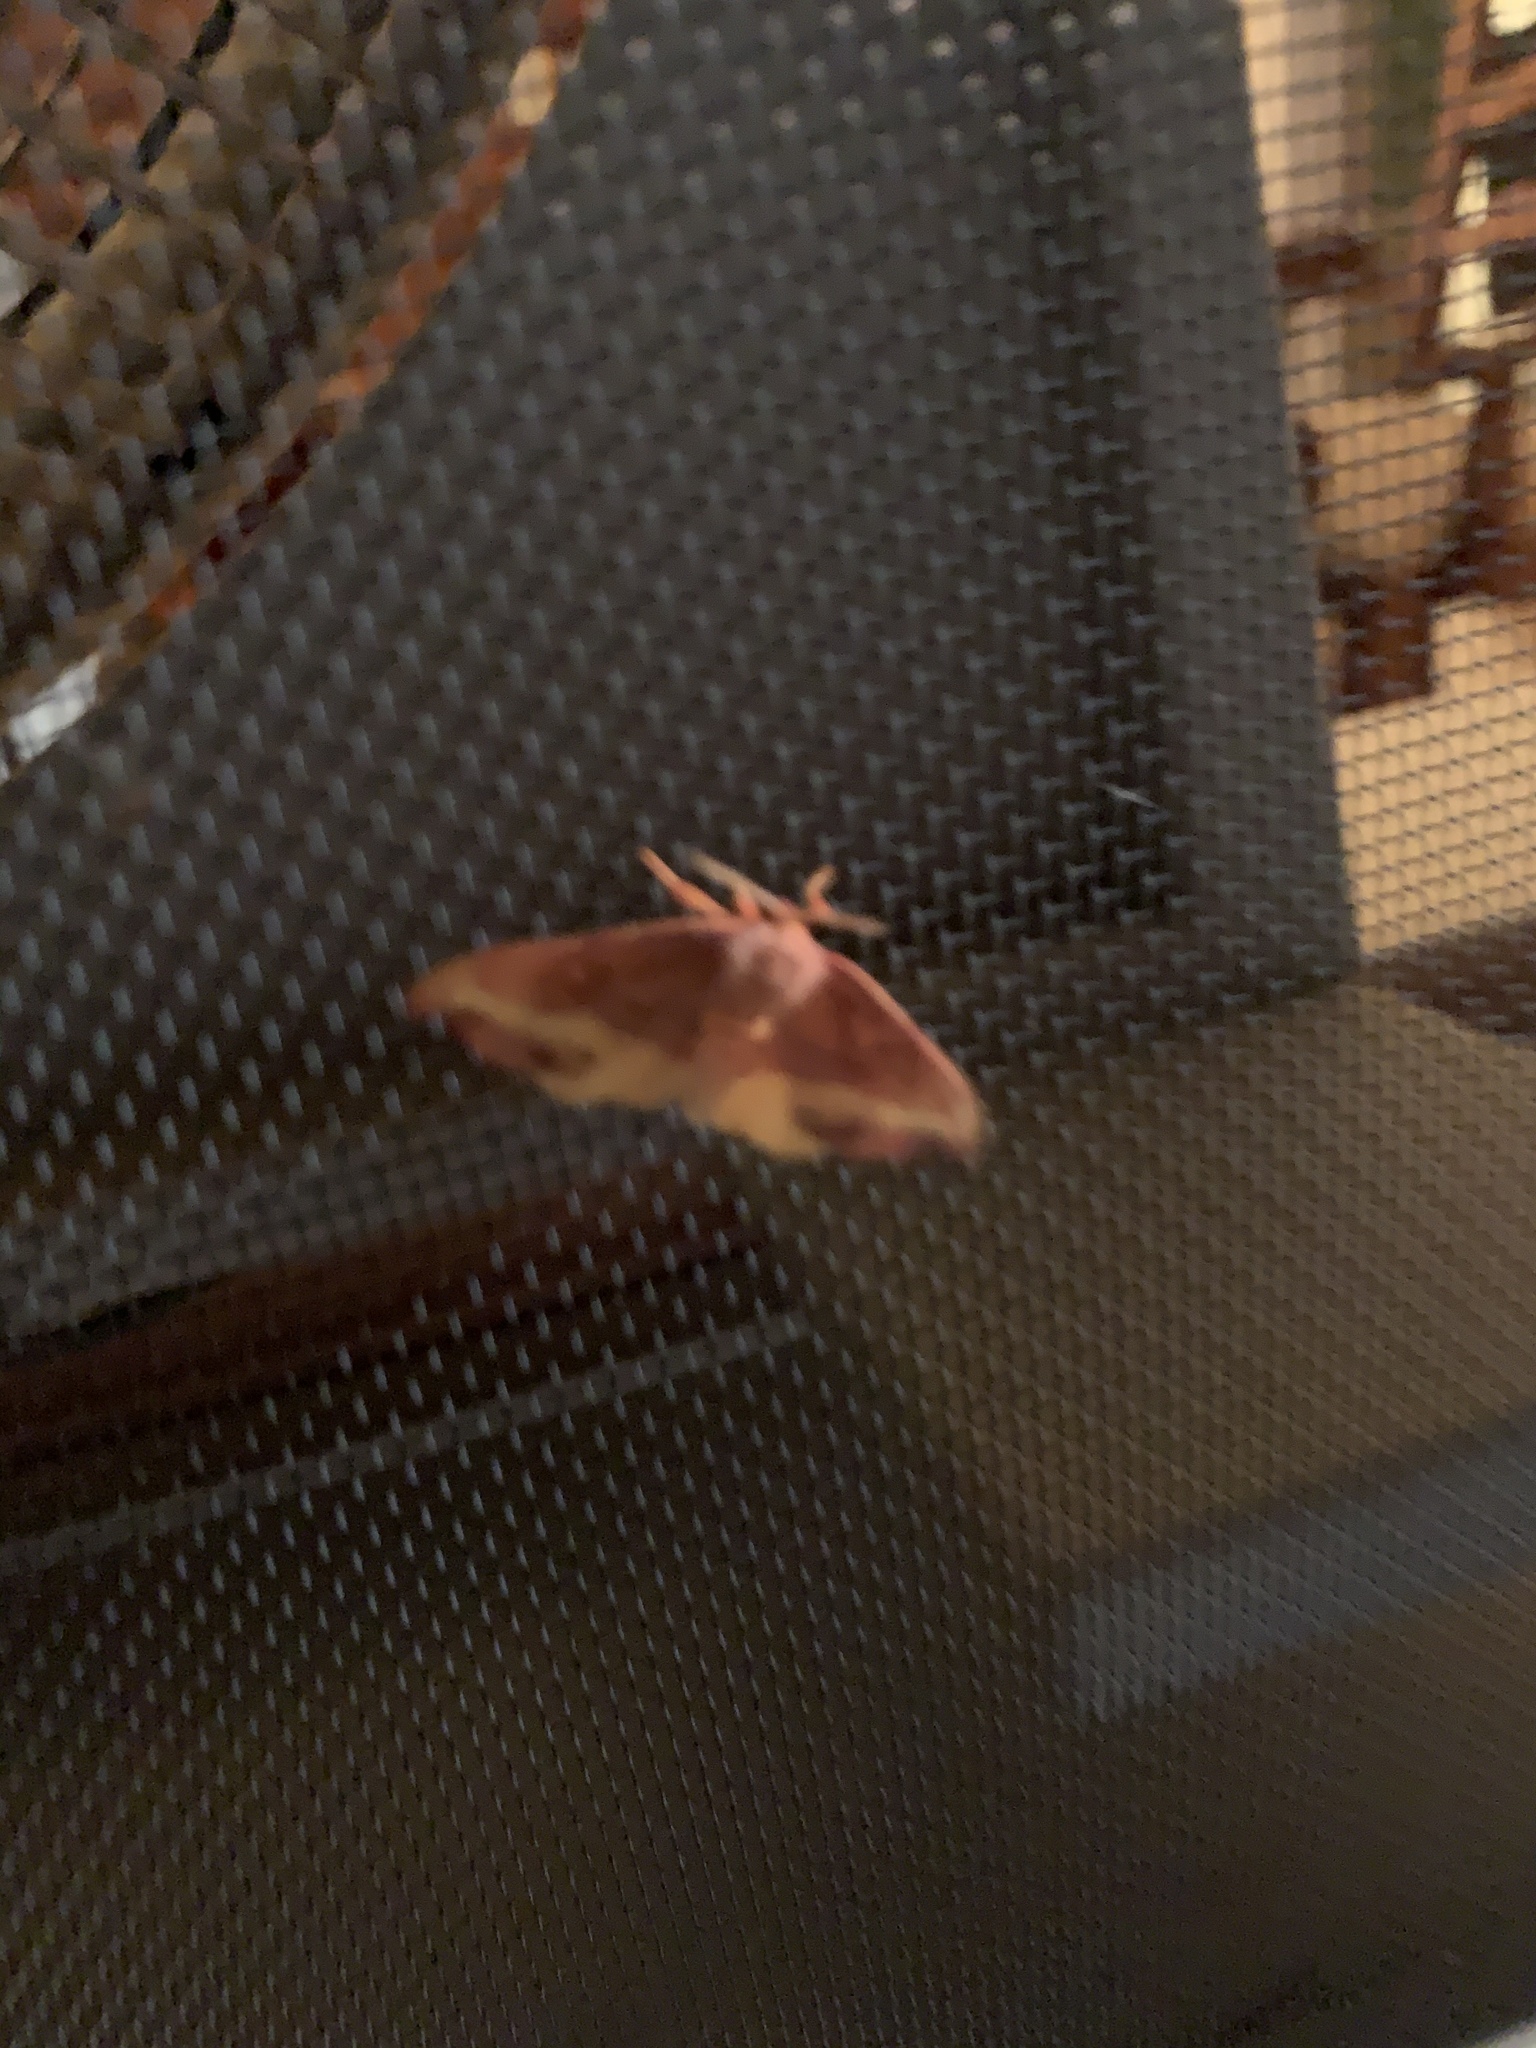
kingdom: Animalia
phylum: Arthropoda
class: Insecta
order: Lepidoptera
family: Drepanidae
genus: Oreta
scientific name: Oreta rosea
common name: Rose hooktip
